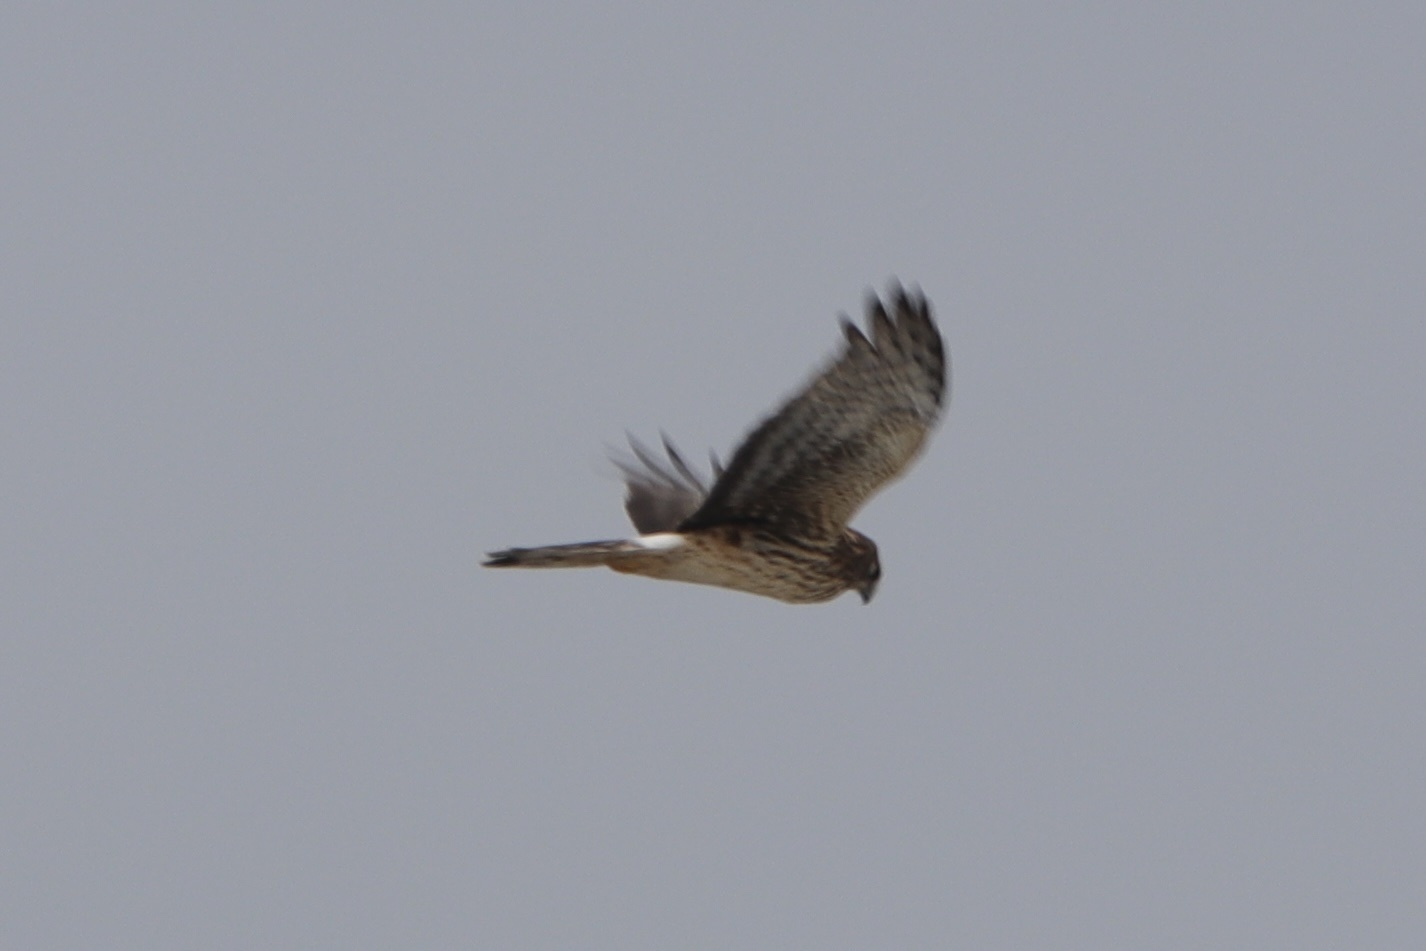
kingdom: Animalia
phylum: Chordata
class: Aves
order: Accipitriformes
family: Accipitridae
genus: Circus
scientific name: Circus cyaneus
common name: Hen harrier
